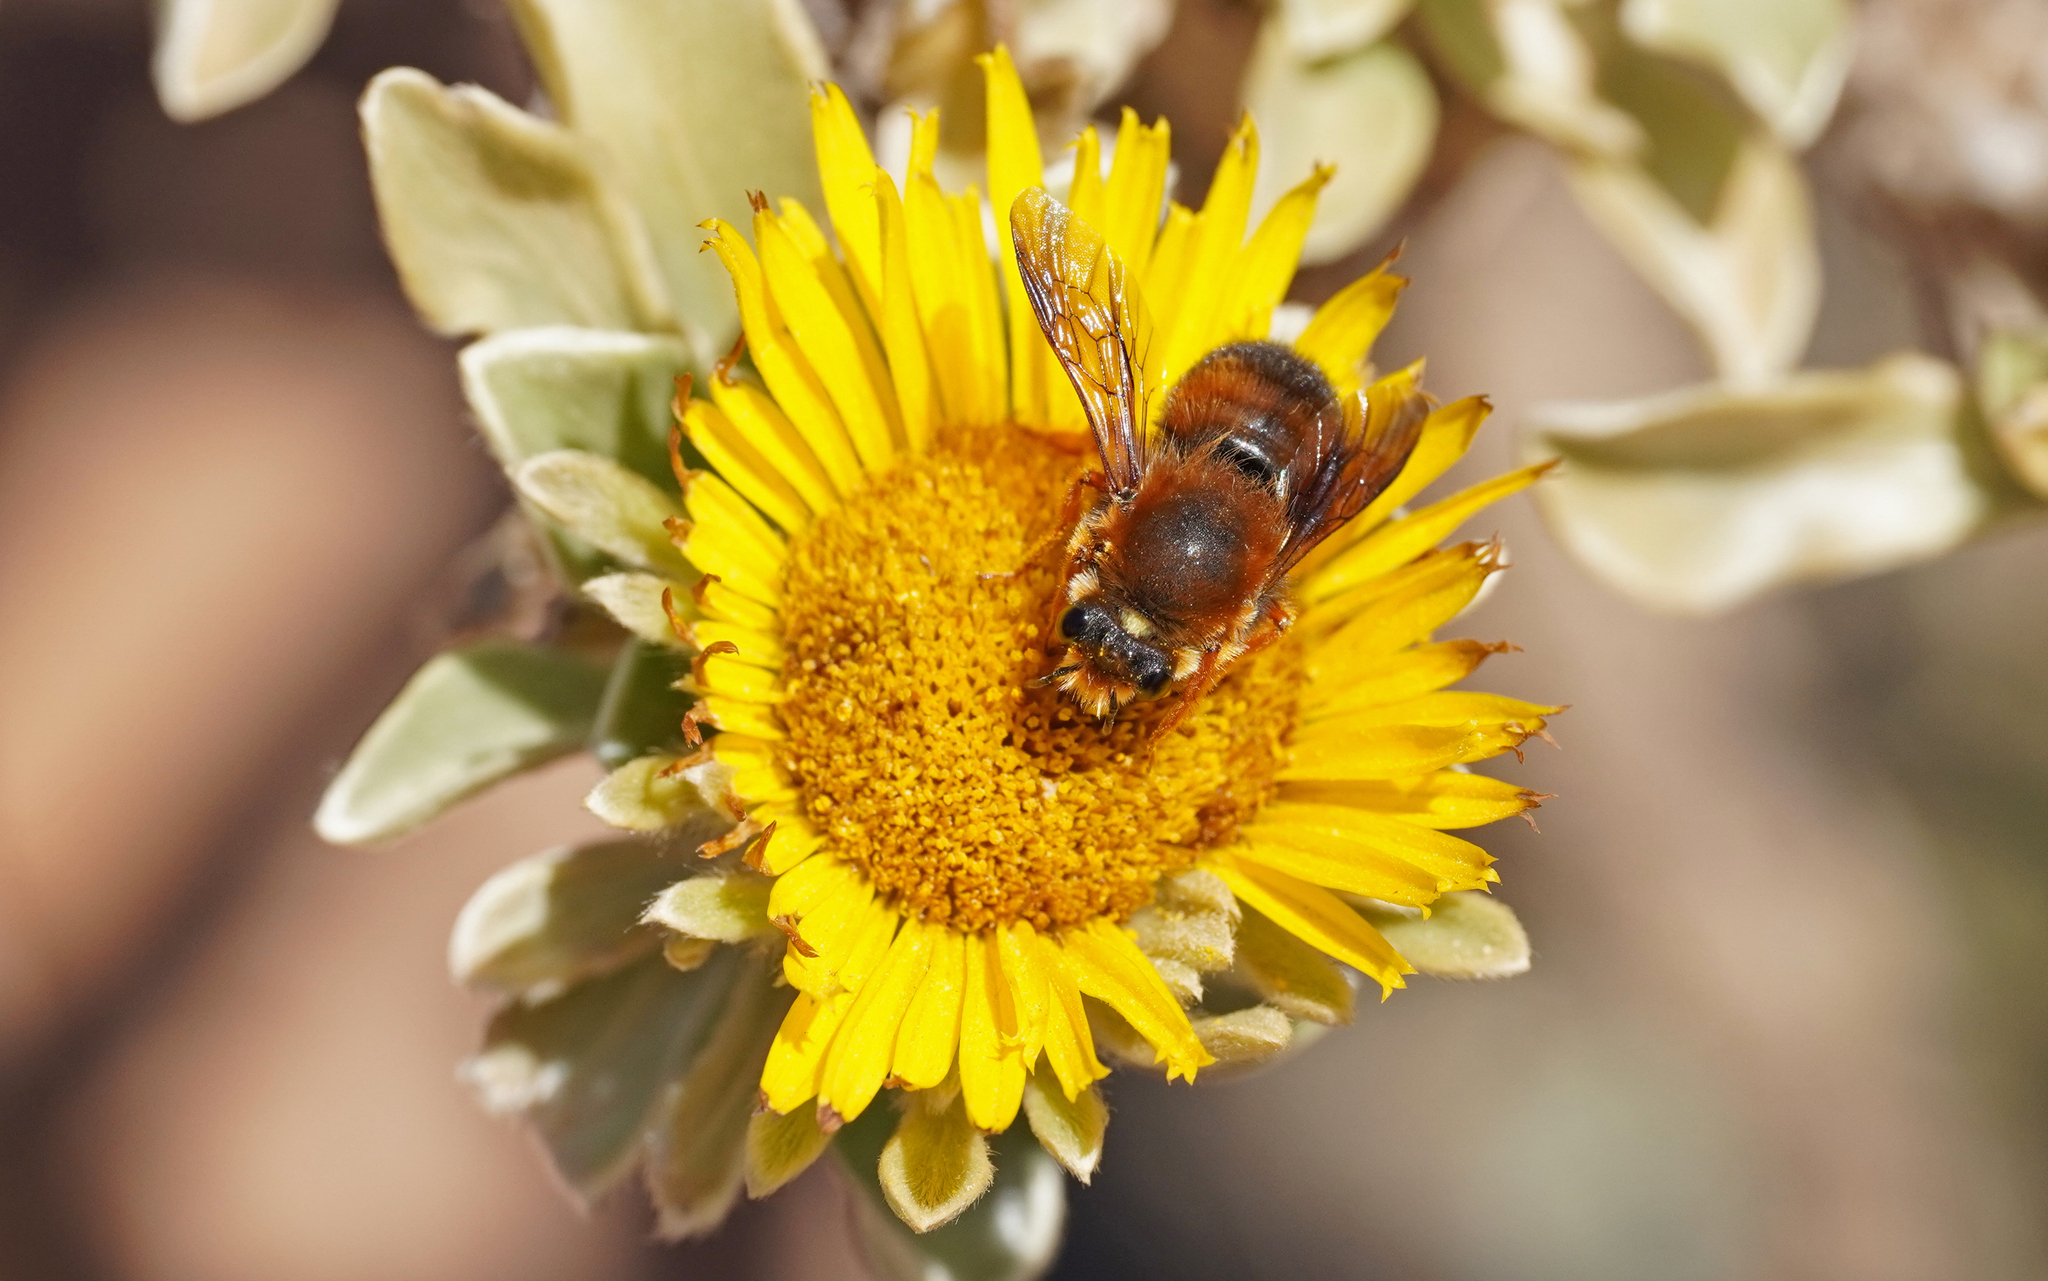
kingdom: Animalia
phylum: Arthropoda
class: Insecta
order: Hymenoptera
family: Megachilidae
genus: Megachile
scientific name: Megachile sicula
